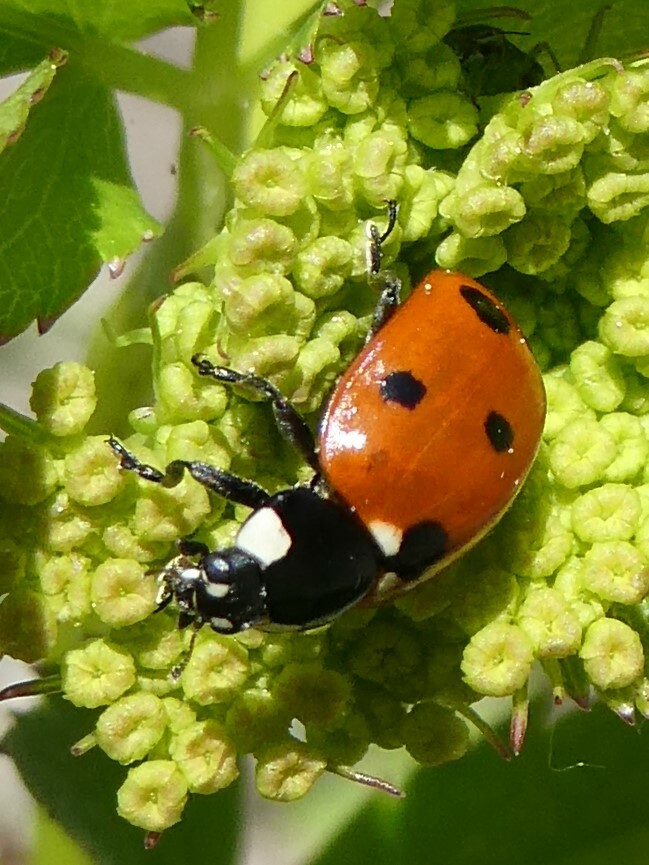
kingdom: Animalia
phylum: Arthropoda
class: Insecta
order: Coleoptera
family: Coccinellidae
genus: Coccinella
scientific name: Coccinella septempunctata
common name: Sevenspotted lady beetle
